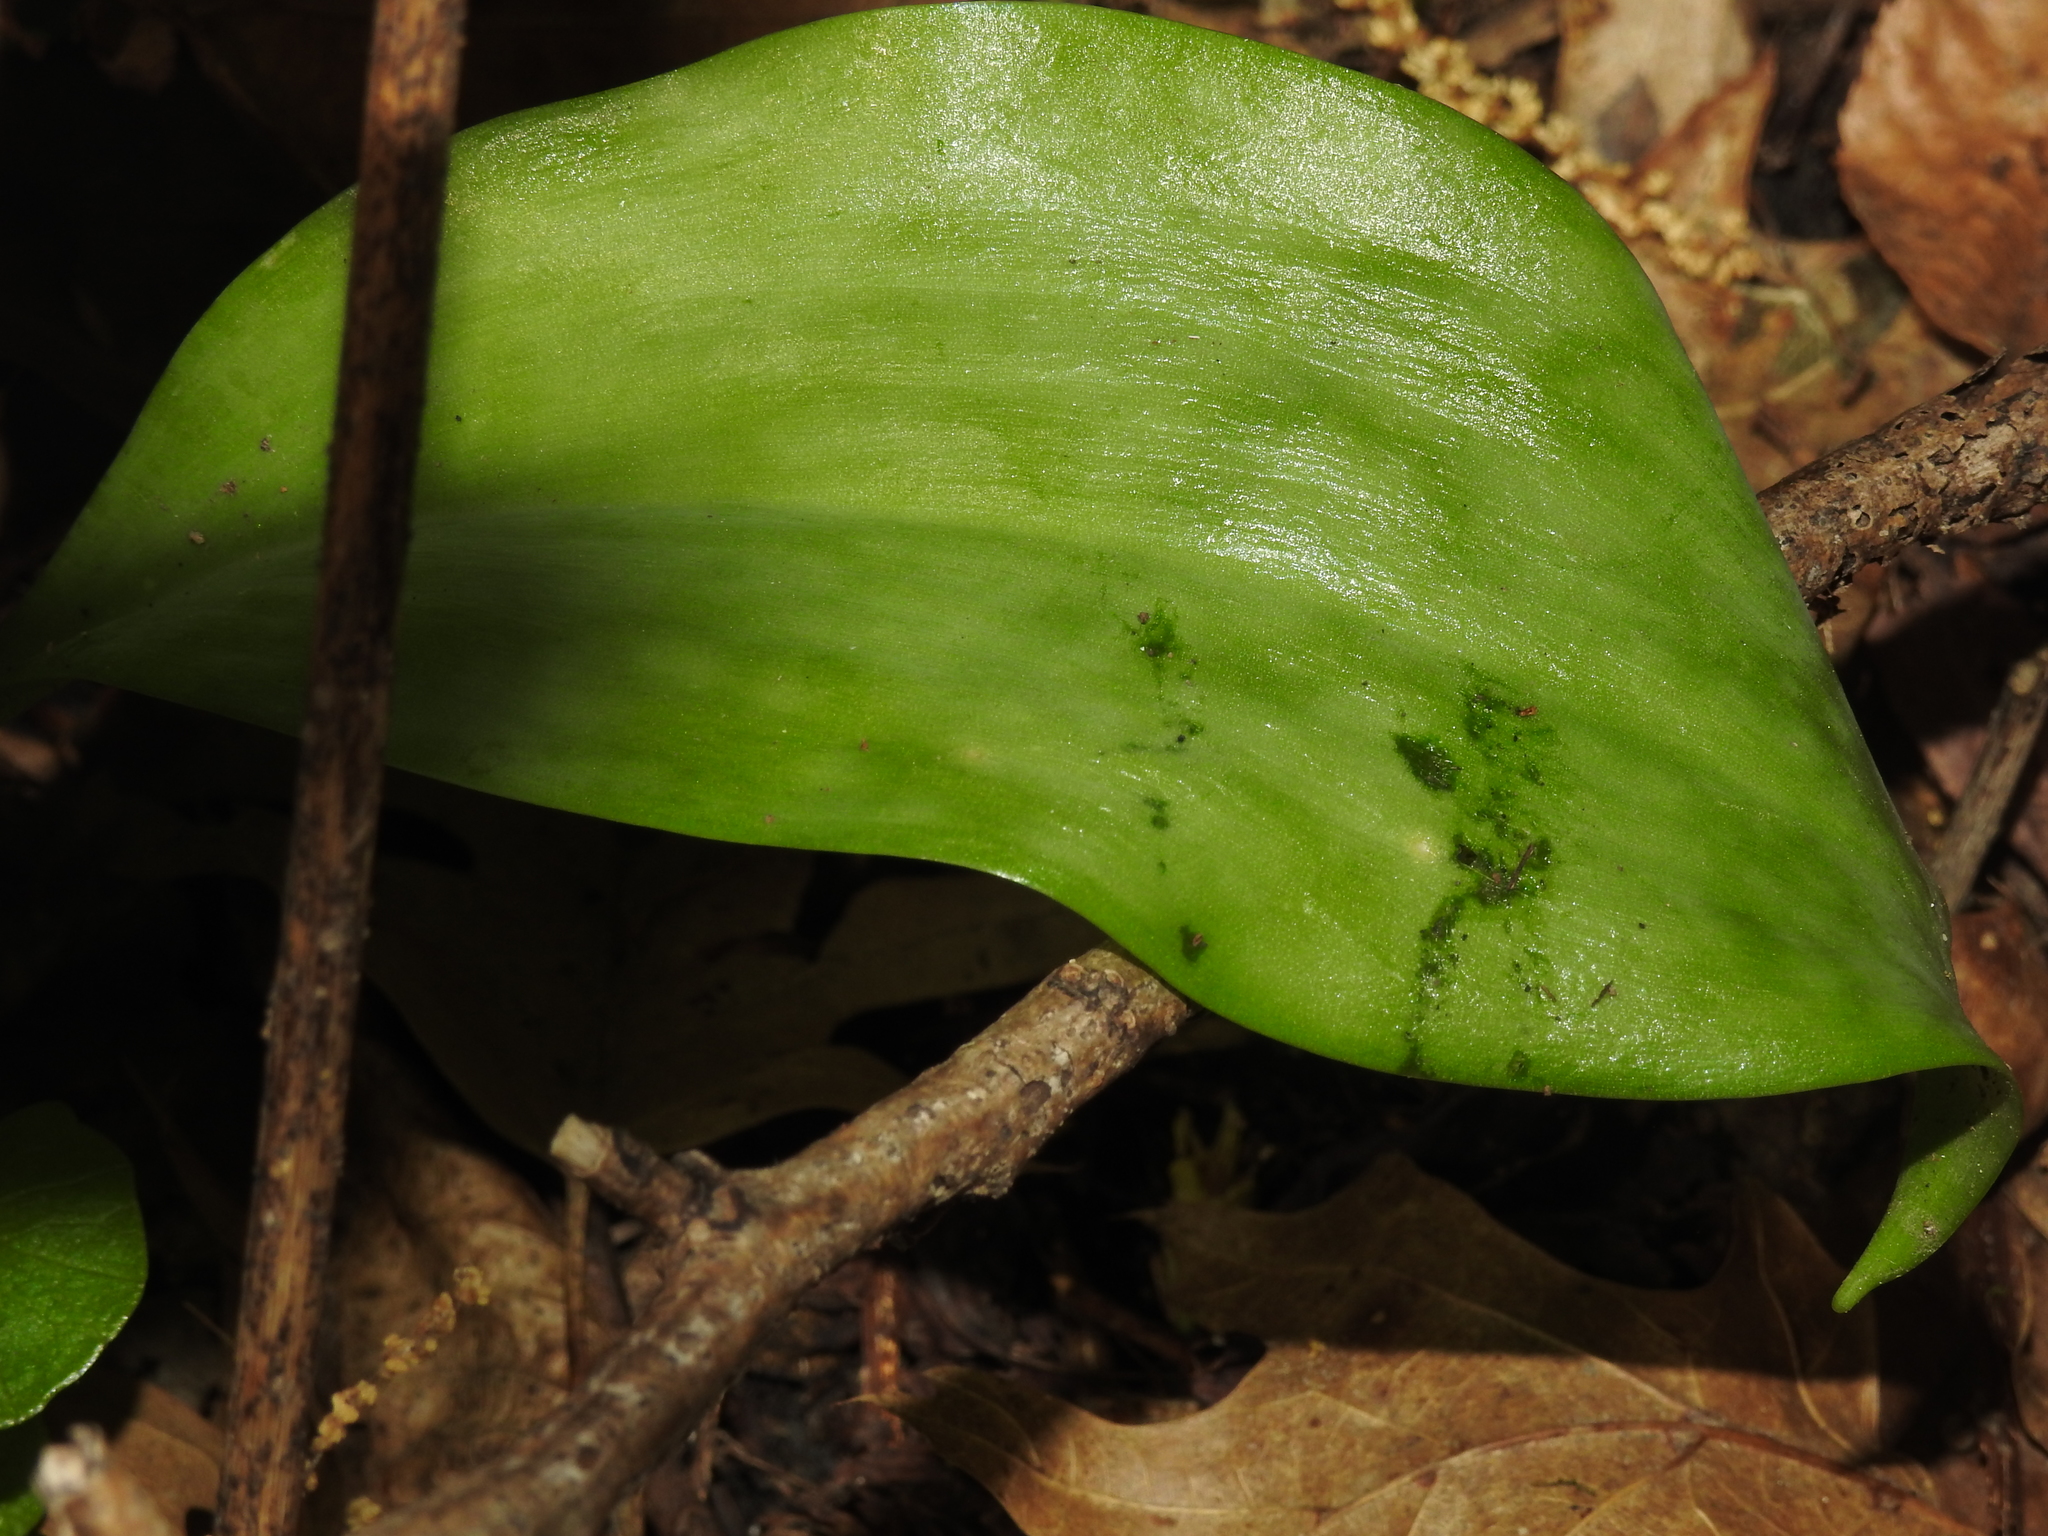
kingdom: Plantae
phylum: Tracheophyta
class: Liliopsida
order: Liliales
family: Liliaceae
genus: Erythronium
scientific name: Erythronium
